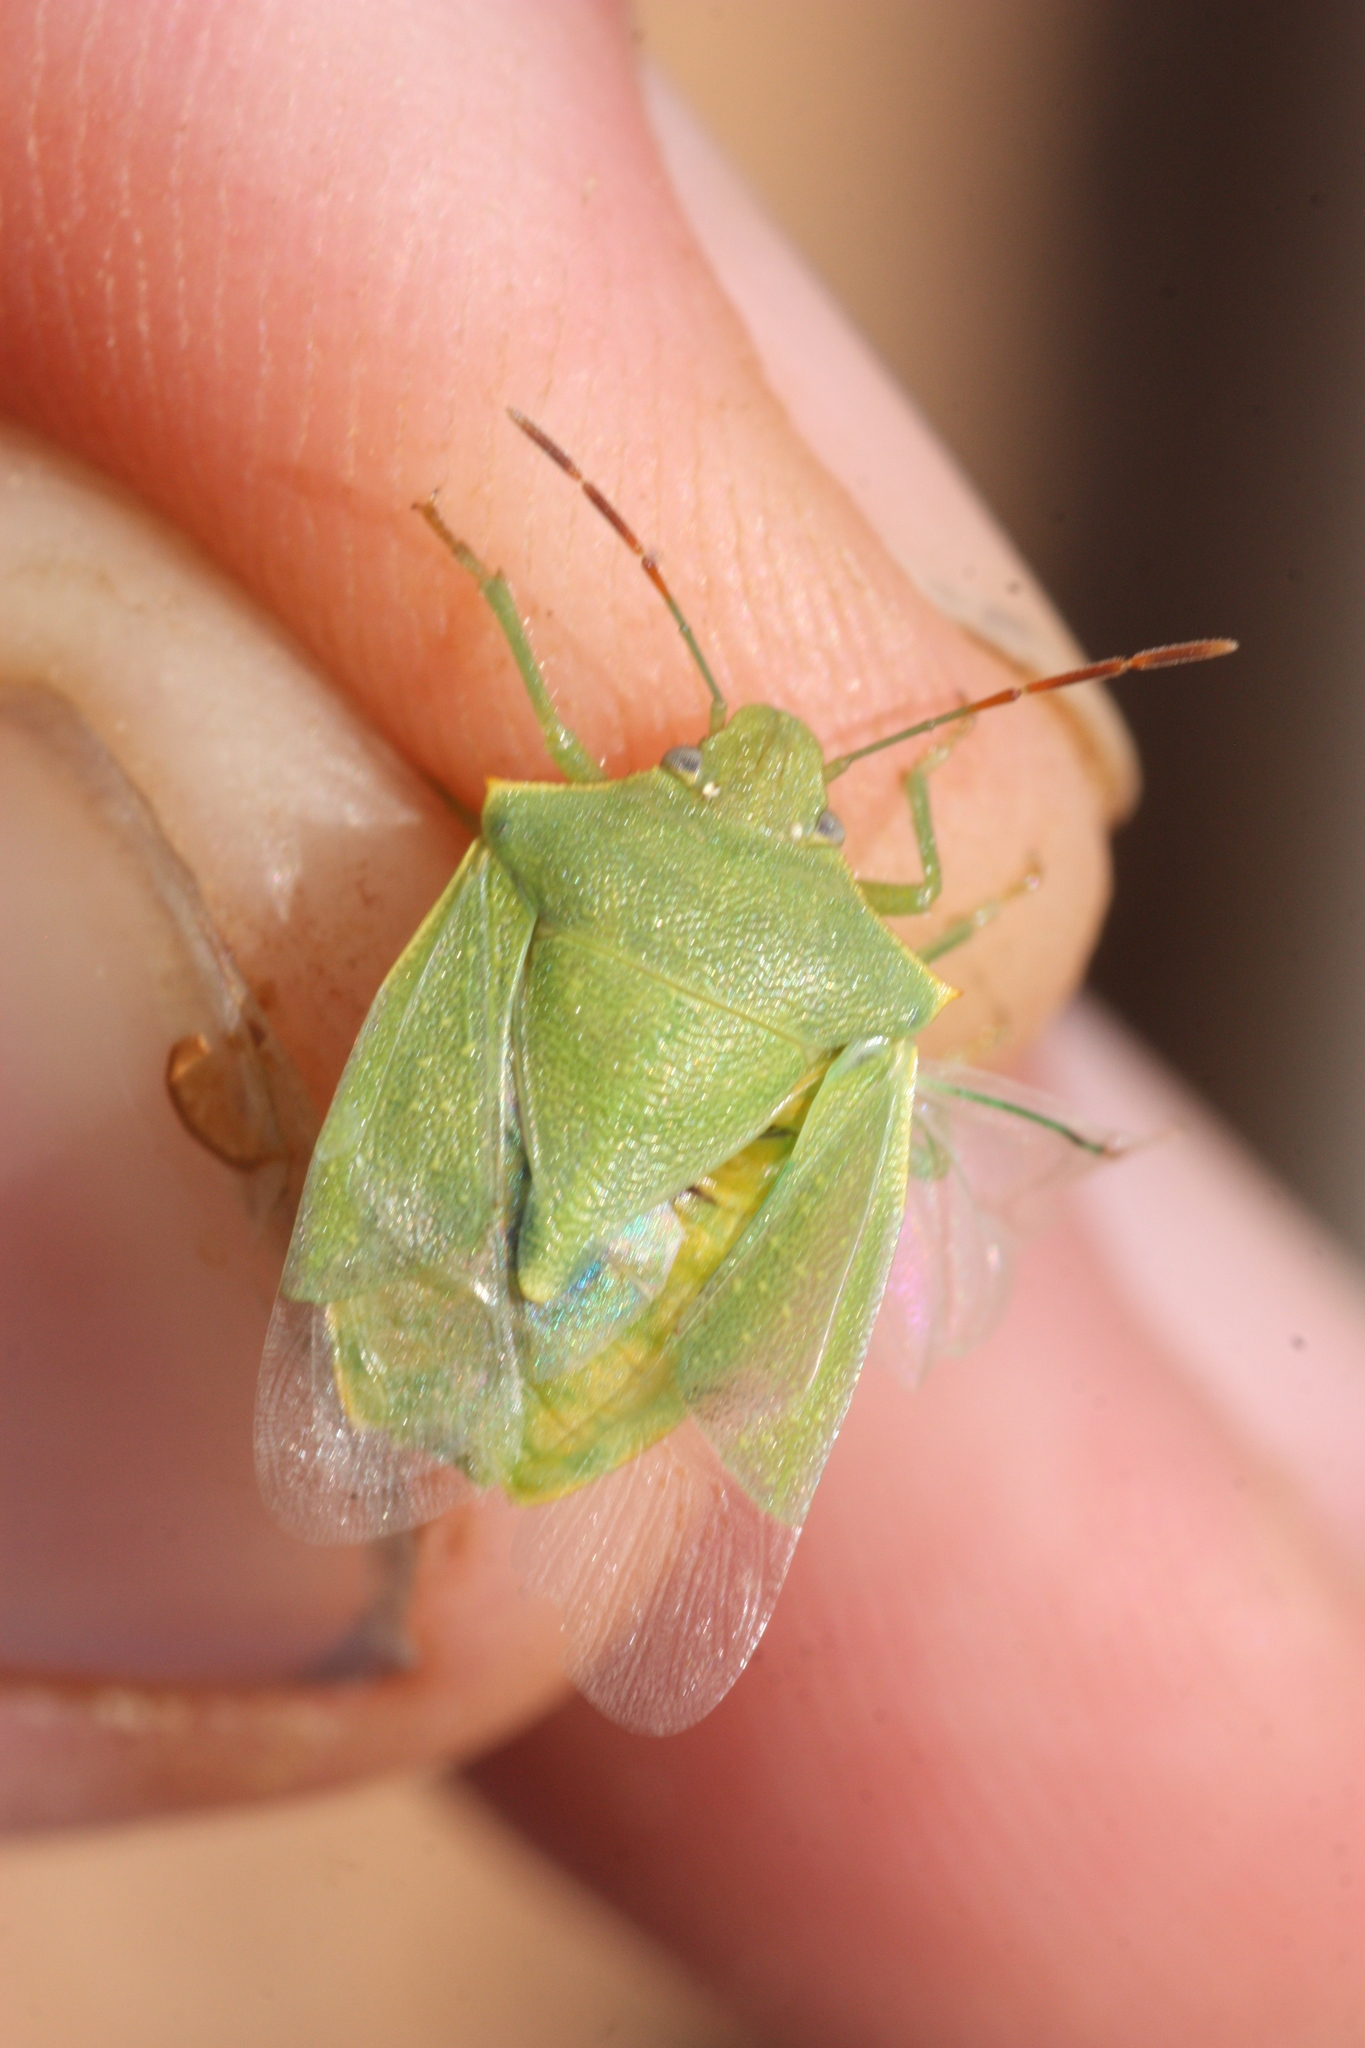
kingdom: Animalia
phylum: Arthropoda
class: Insecta
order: Hemiptera
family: Pentatomidae
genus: Thyanta
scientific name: Thyanta accerra
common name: Stink bug
